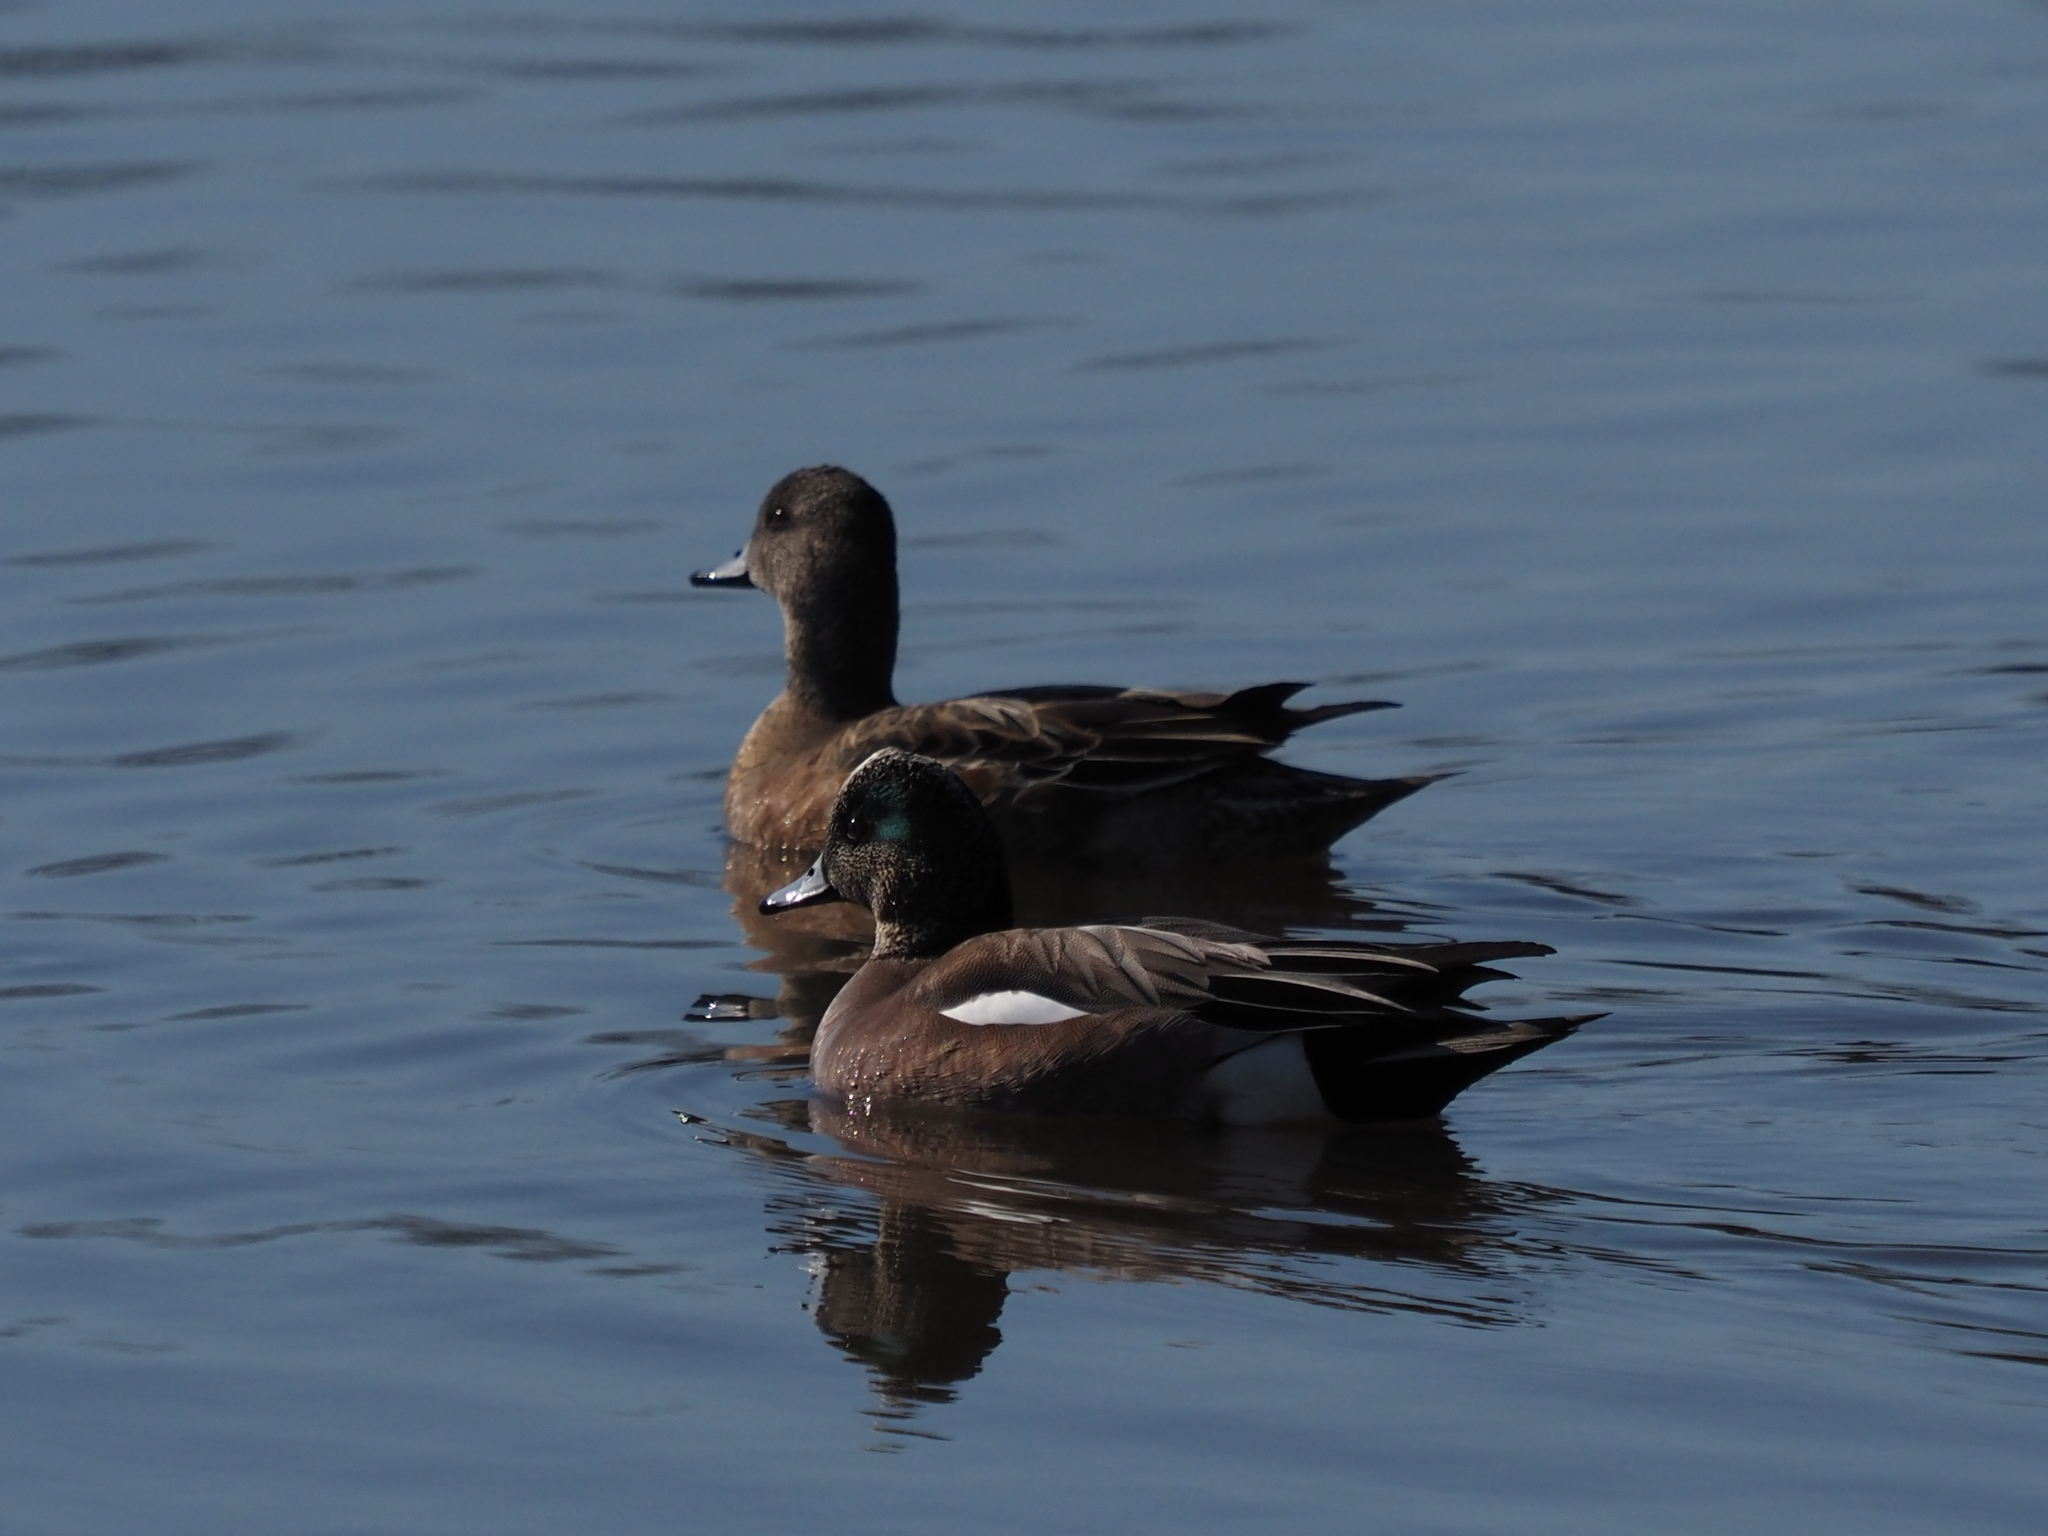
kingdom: Animalia
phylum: Chordata
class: Aves
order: Anseriformes
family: Anatidae
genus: Mareca
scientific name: Mareca americana
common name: American wigeon
